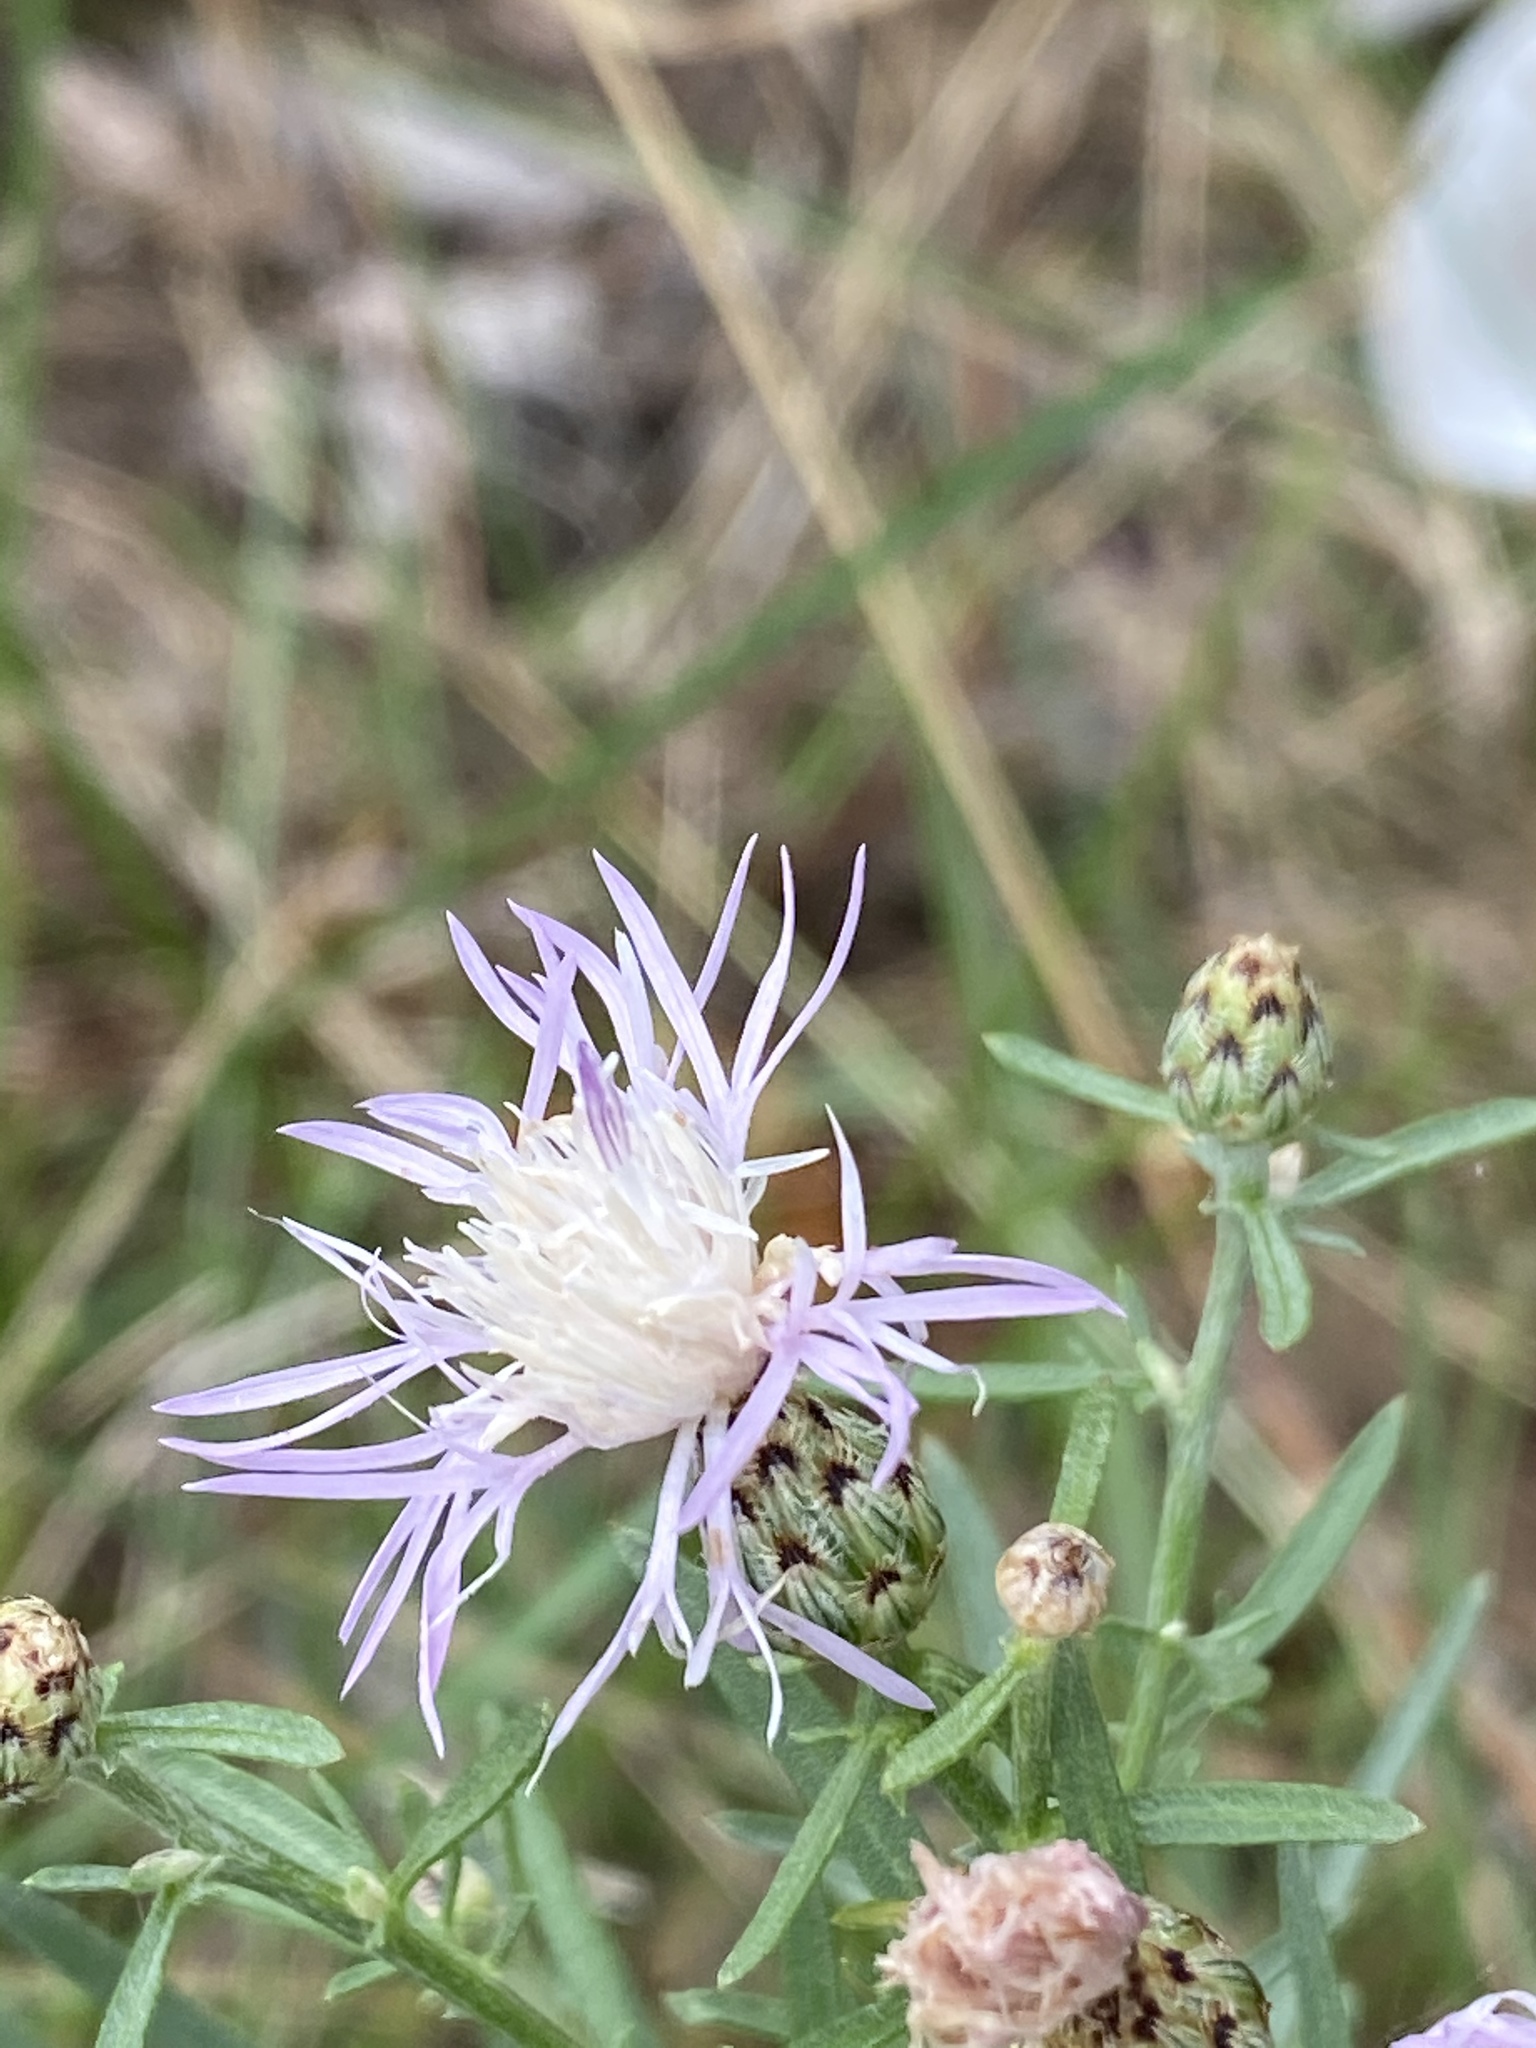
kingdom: Plantae
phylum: Tracheophyta
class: Magnoliopsida
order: Asterales
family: Asteraceae
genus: Centaurea
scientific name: Centaurea stoebe
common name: Spotted knapweed
